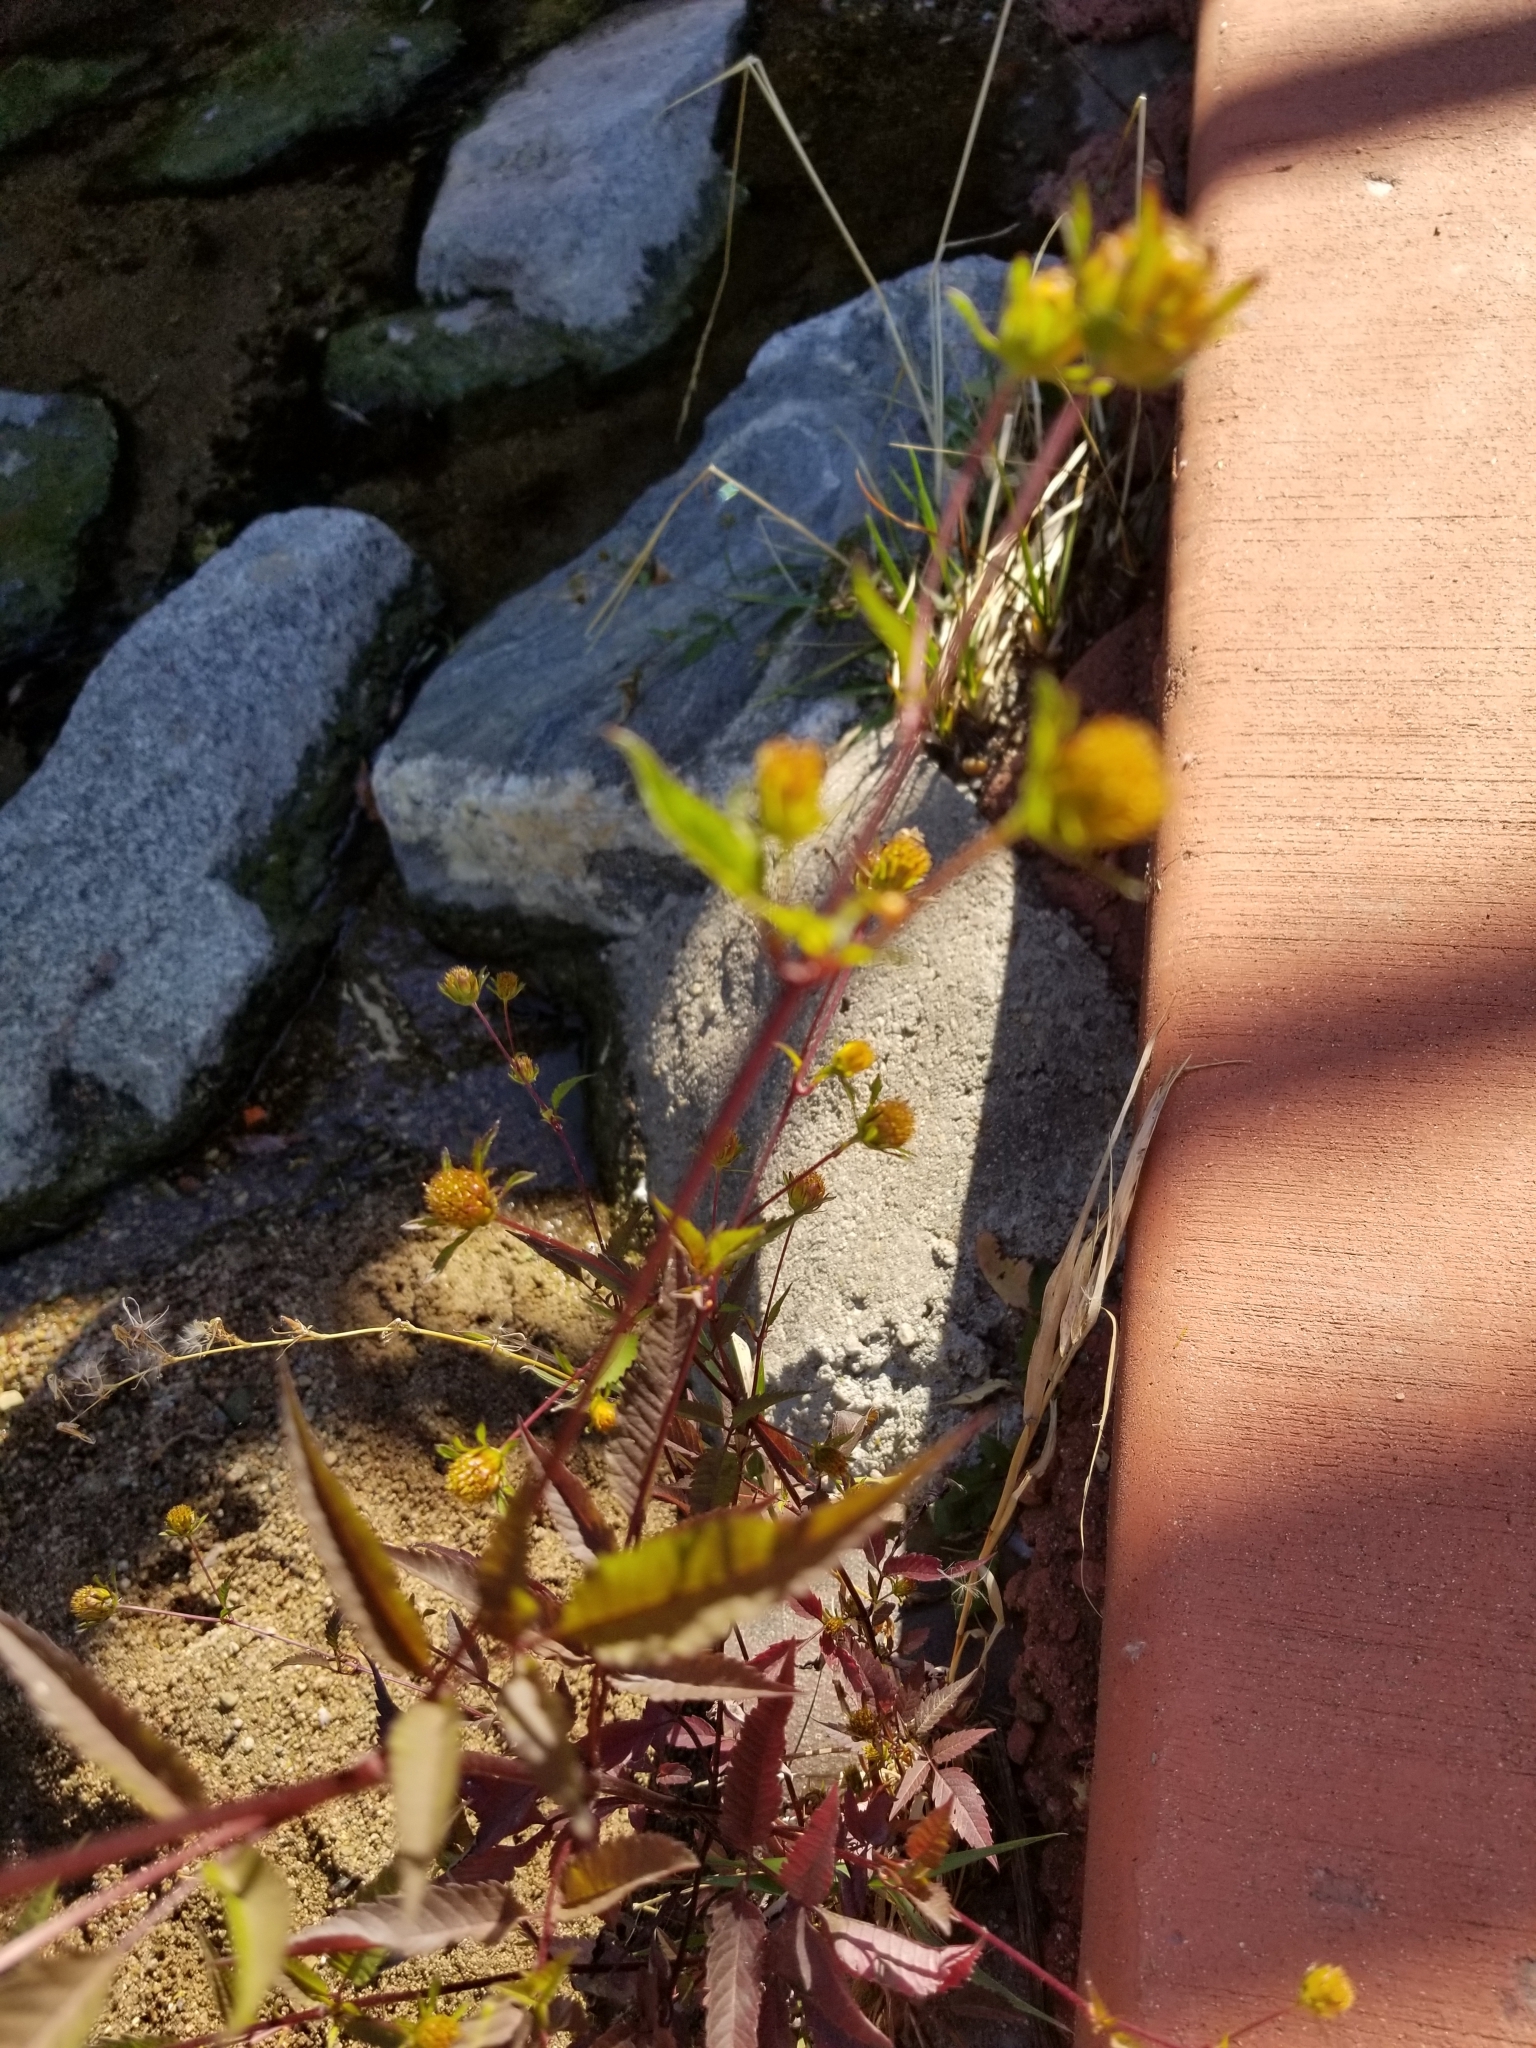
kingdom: Plantae
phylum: Tracheophyta
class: Magnoliopsida
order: Asterales
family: Asteraceae
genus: Bidens
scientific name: Bidens frondosa
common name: Beggarticks
